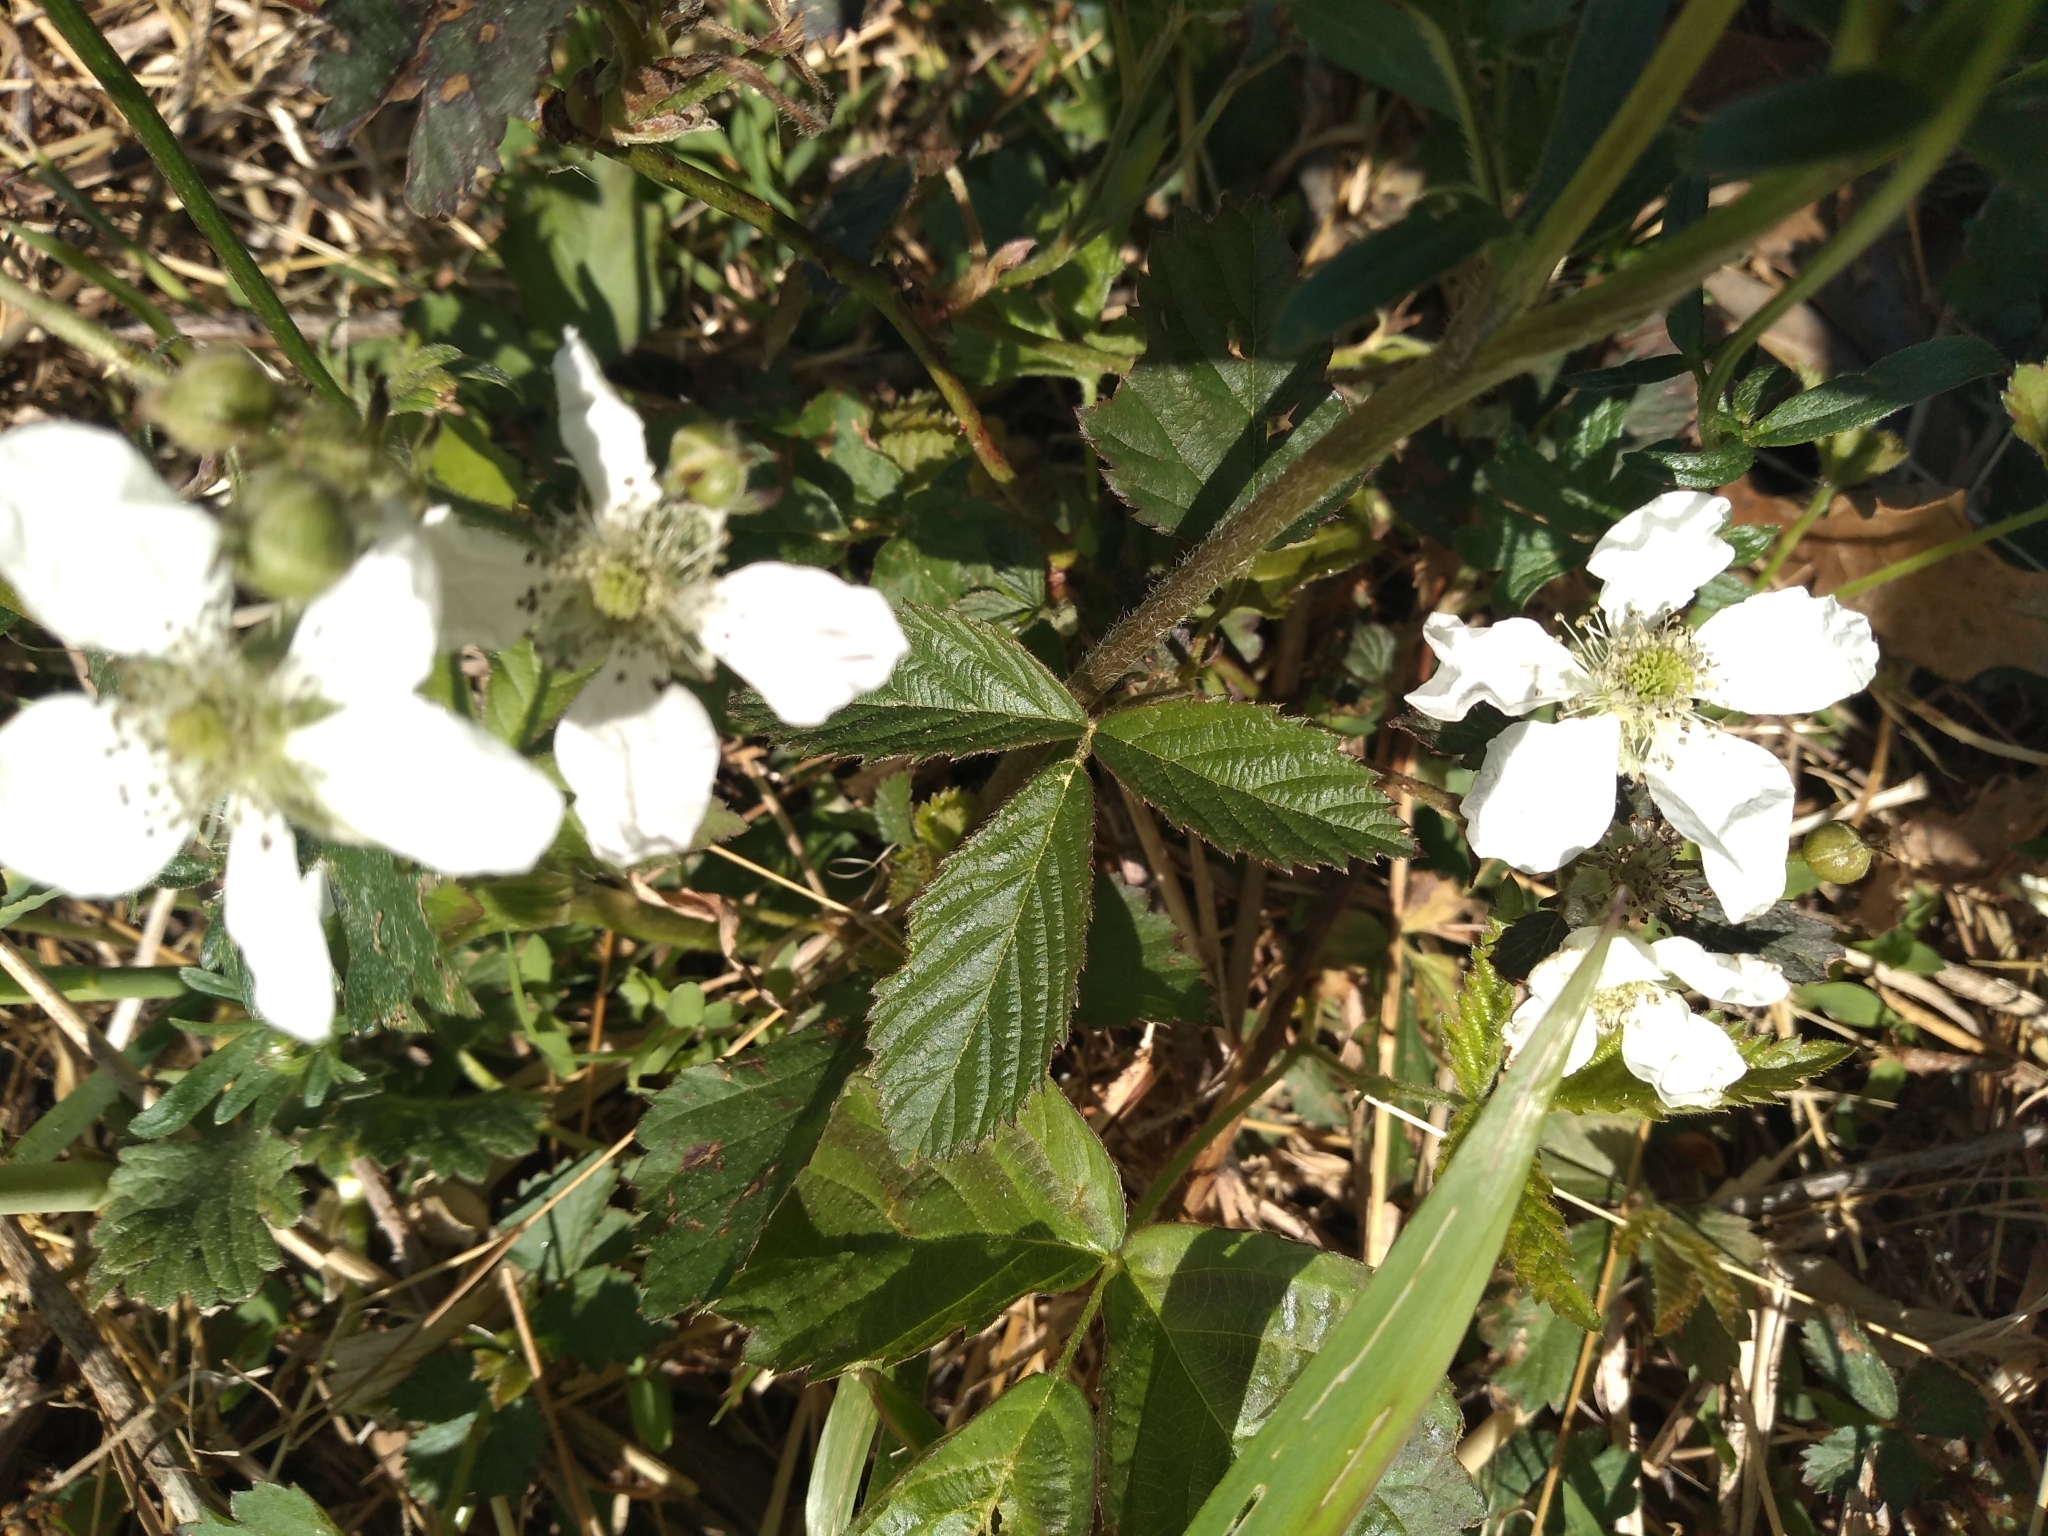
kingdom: Plantae
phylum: Tracheophyta
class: Magnoliopsida
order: Rosales
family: Rosaceae
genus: Rubus
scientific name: Rubus flagellaris
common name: American dewberry
